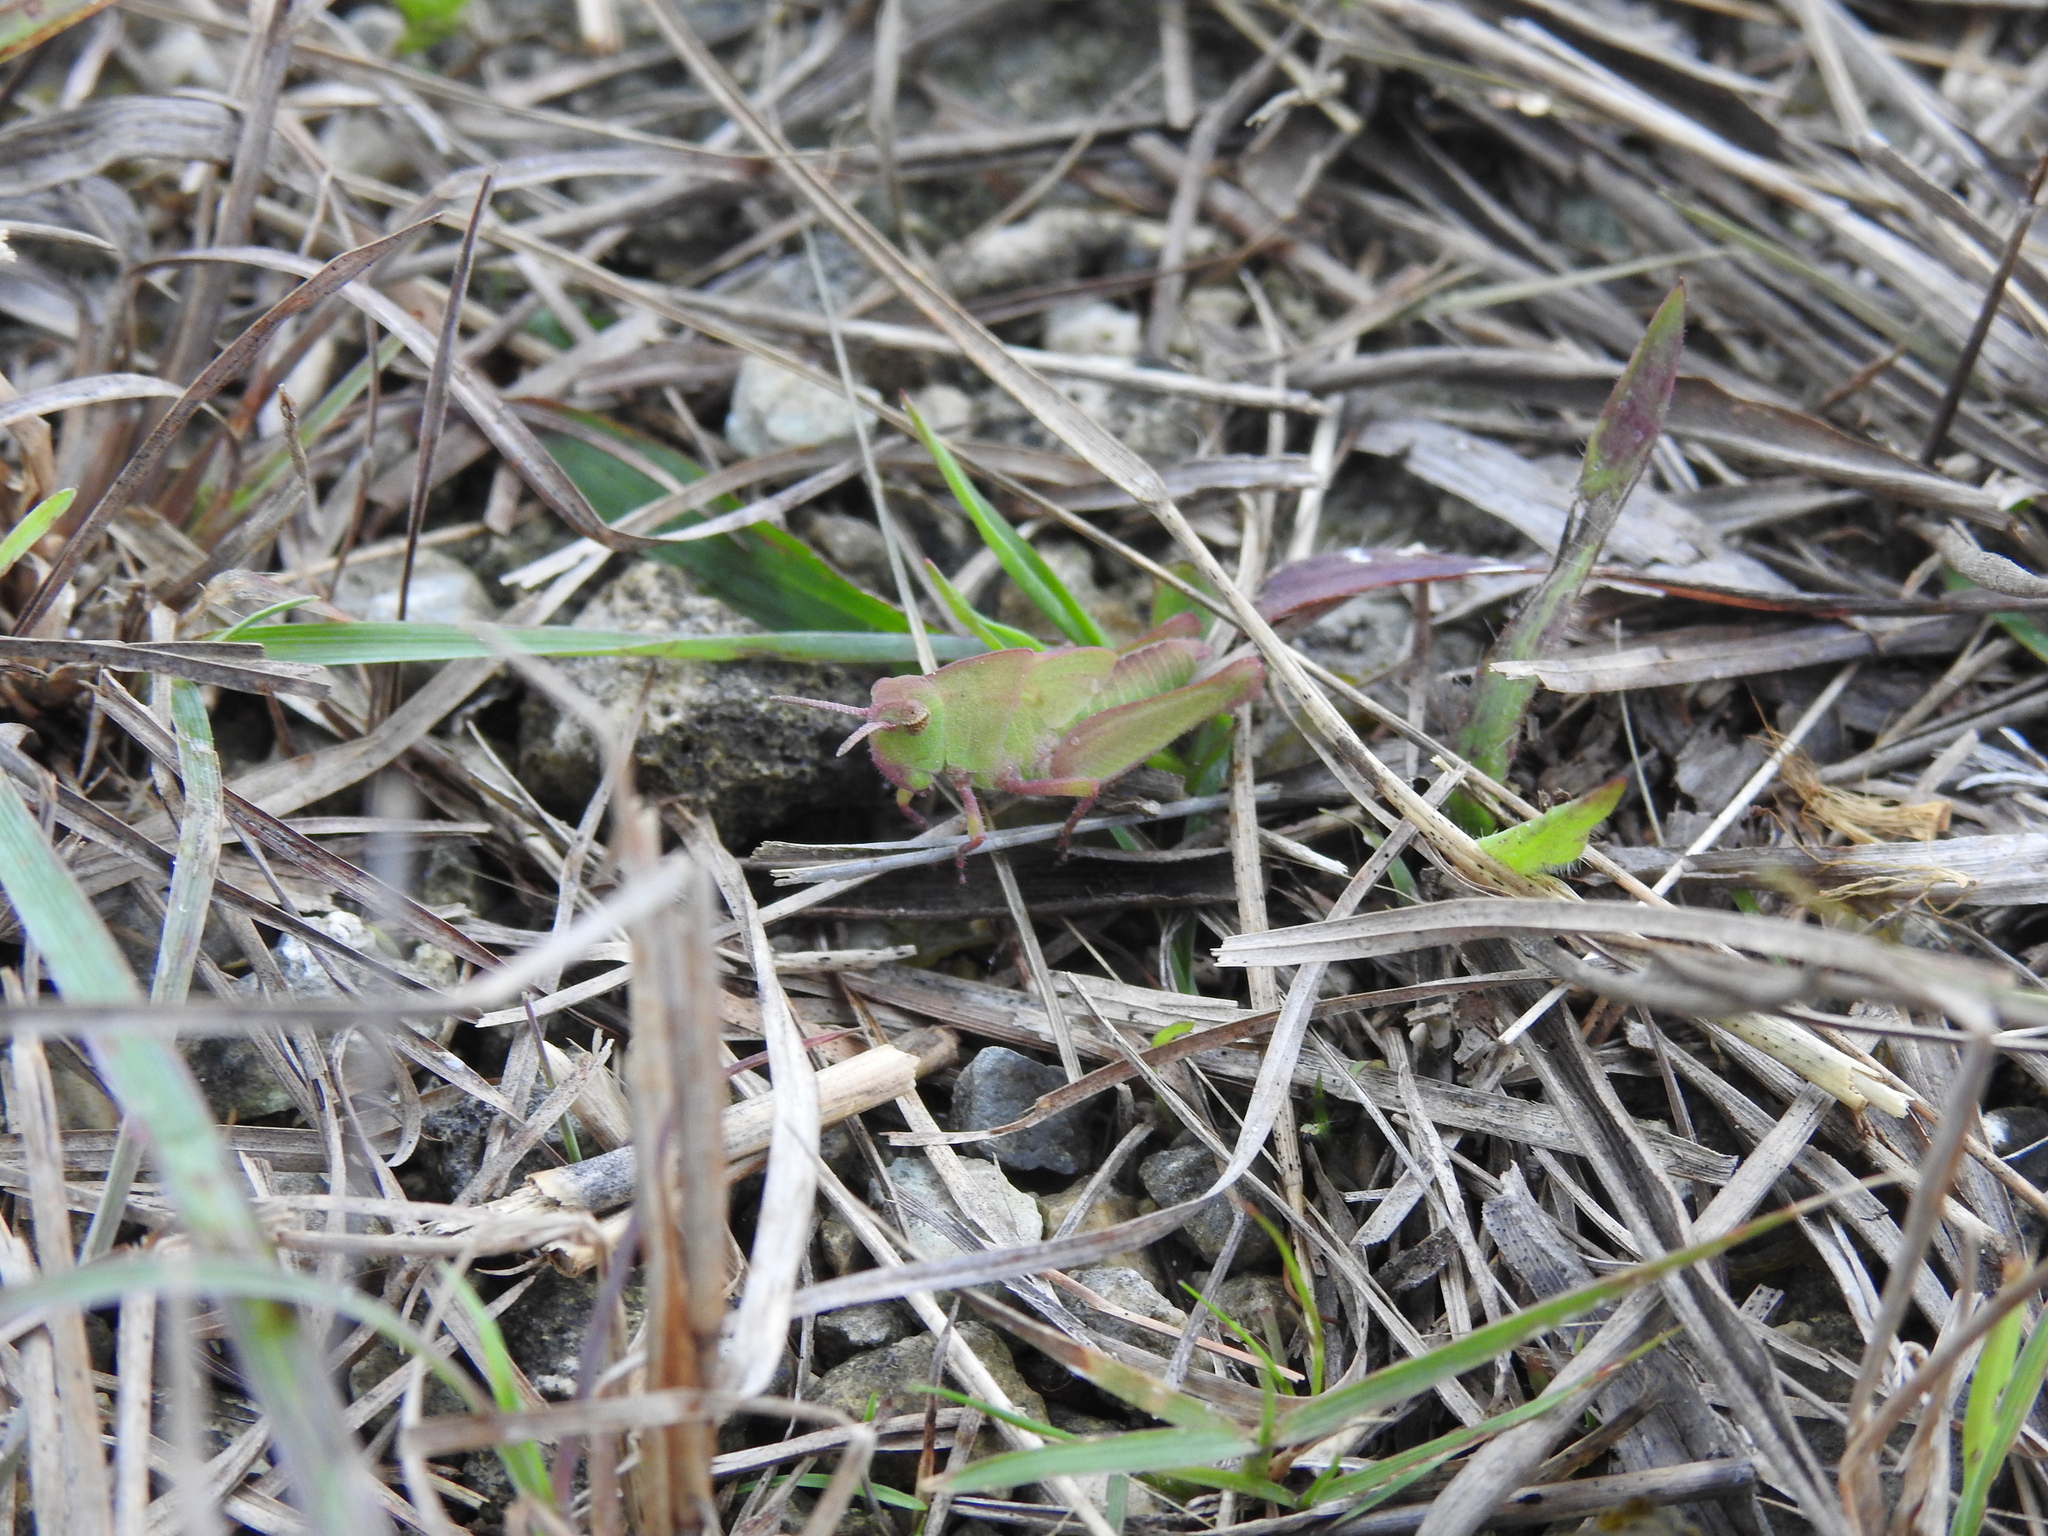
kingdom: Animalia
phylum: Arthropoda
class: Insecta
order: Orthoptera
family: Acrididae
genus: Chortophaga
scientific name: Chortophaga australior
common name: Southern green-striped grasshopper
